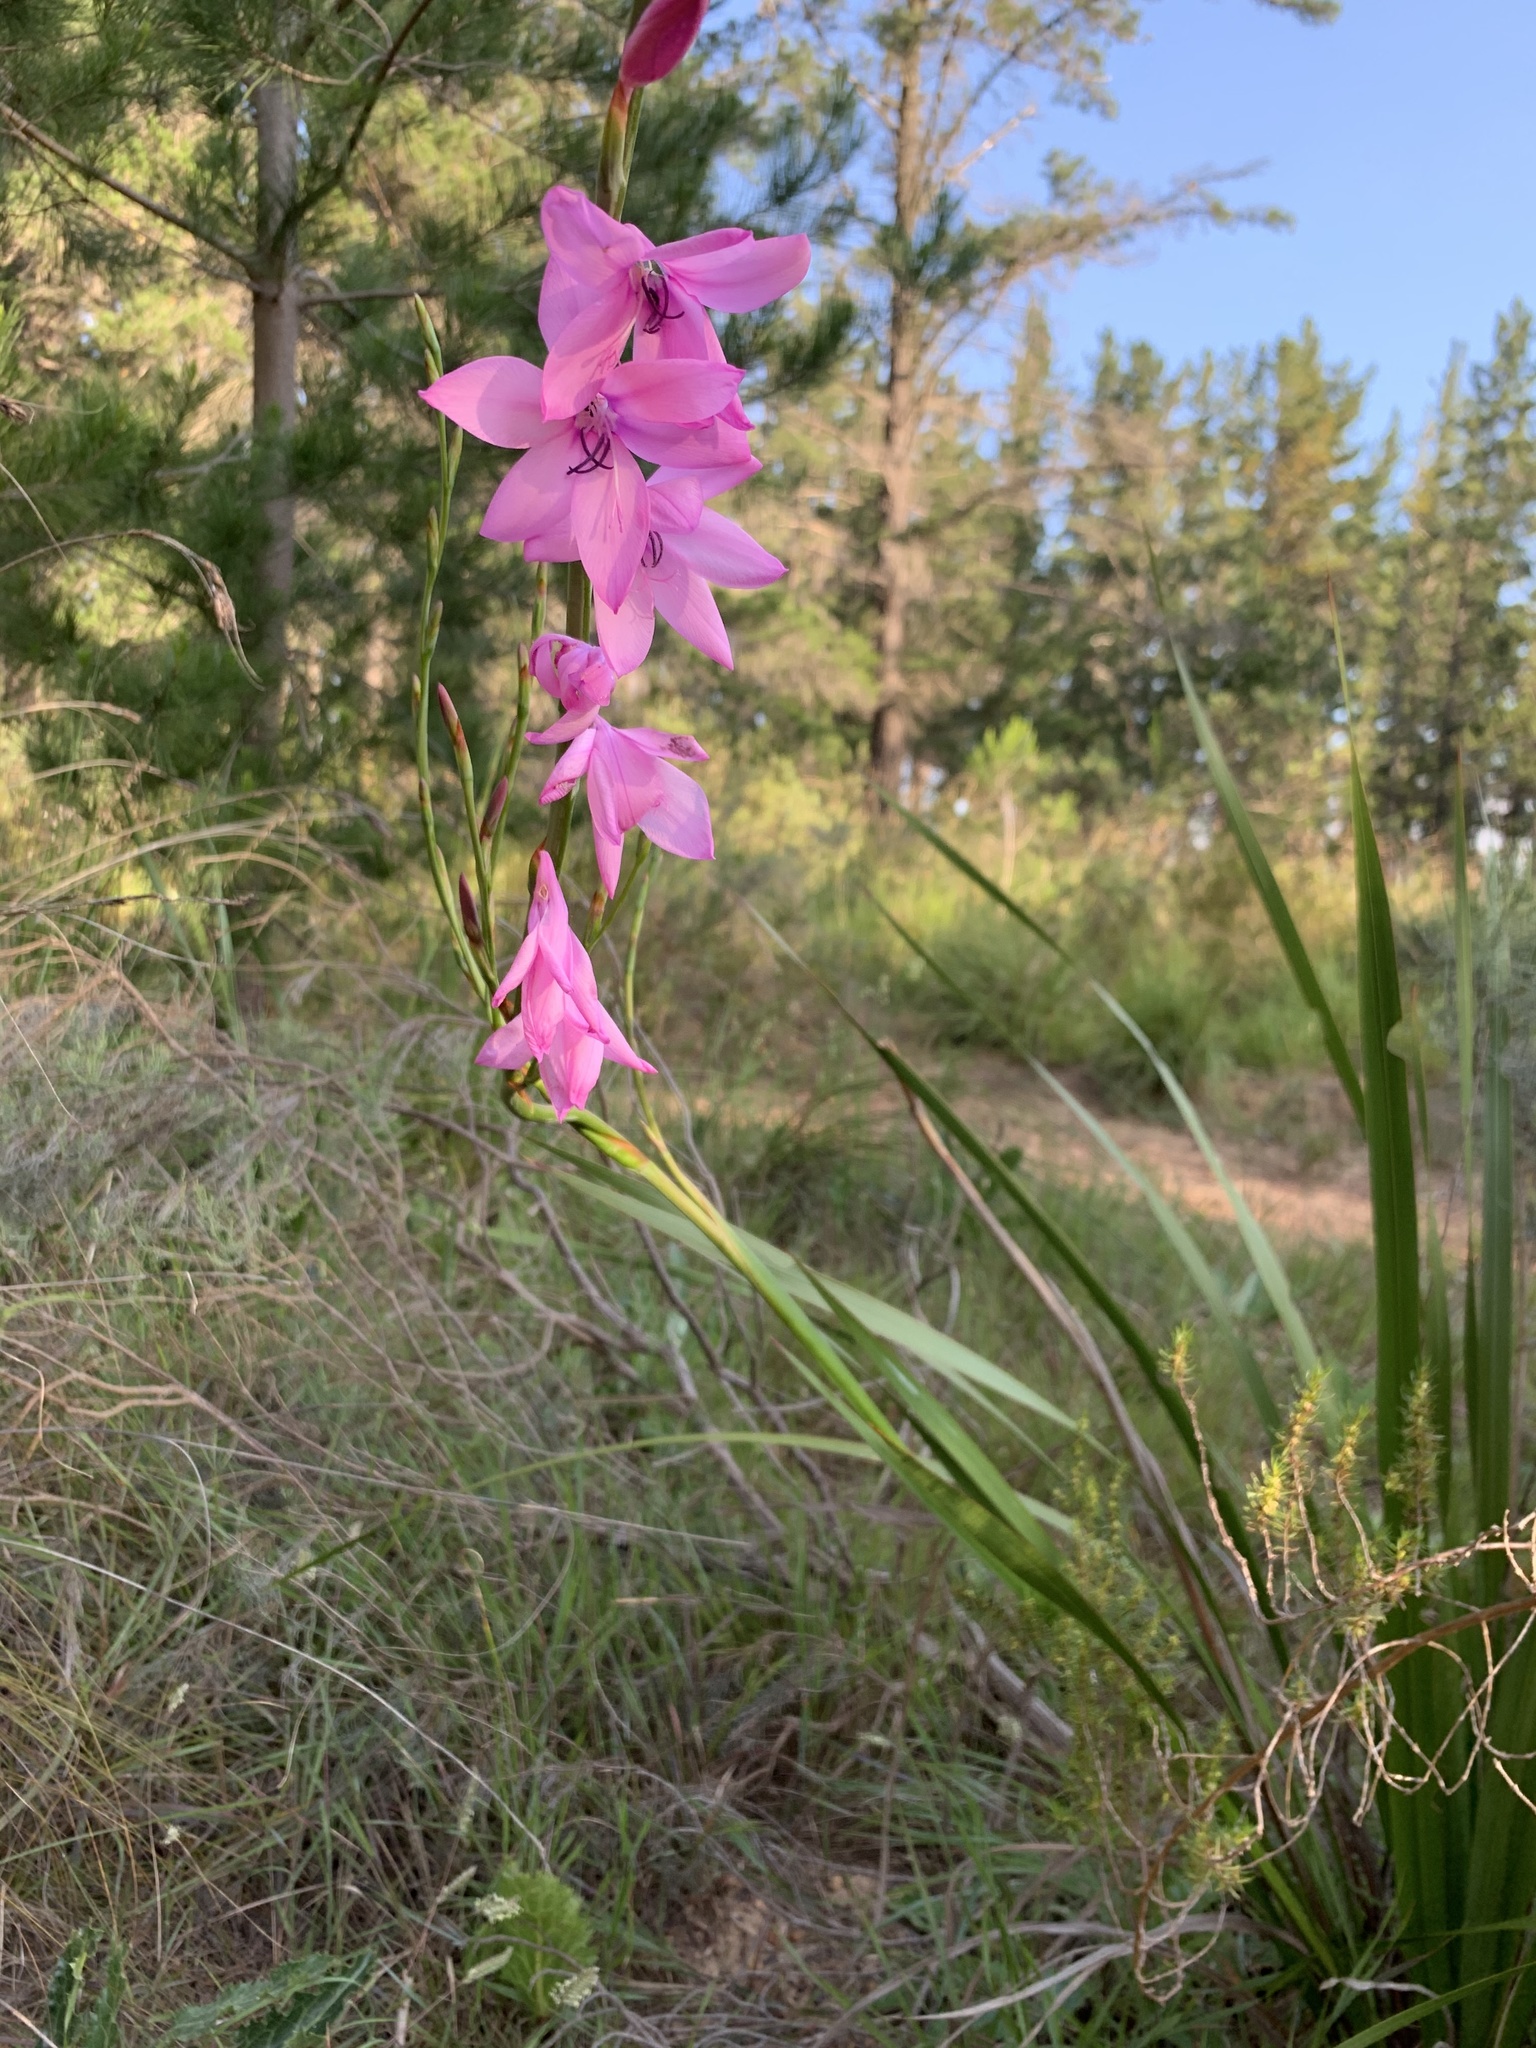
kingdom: Plantae
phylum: Tracheophyta
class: Liliopsida
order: Asparagales
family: Iridaceae
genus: Watsonia
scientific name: Watsonia borbonica
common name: Bugle-lily
